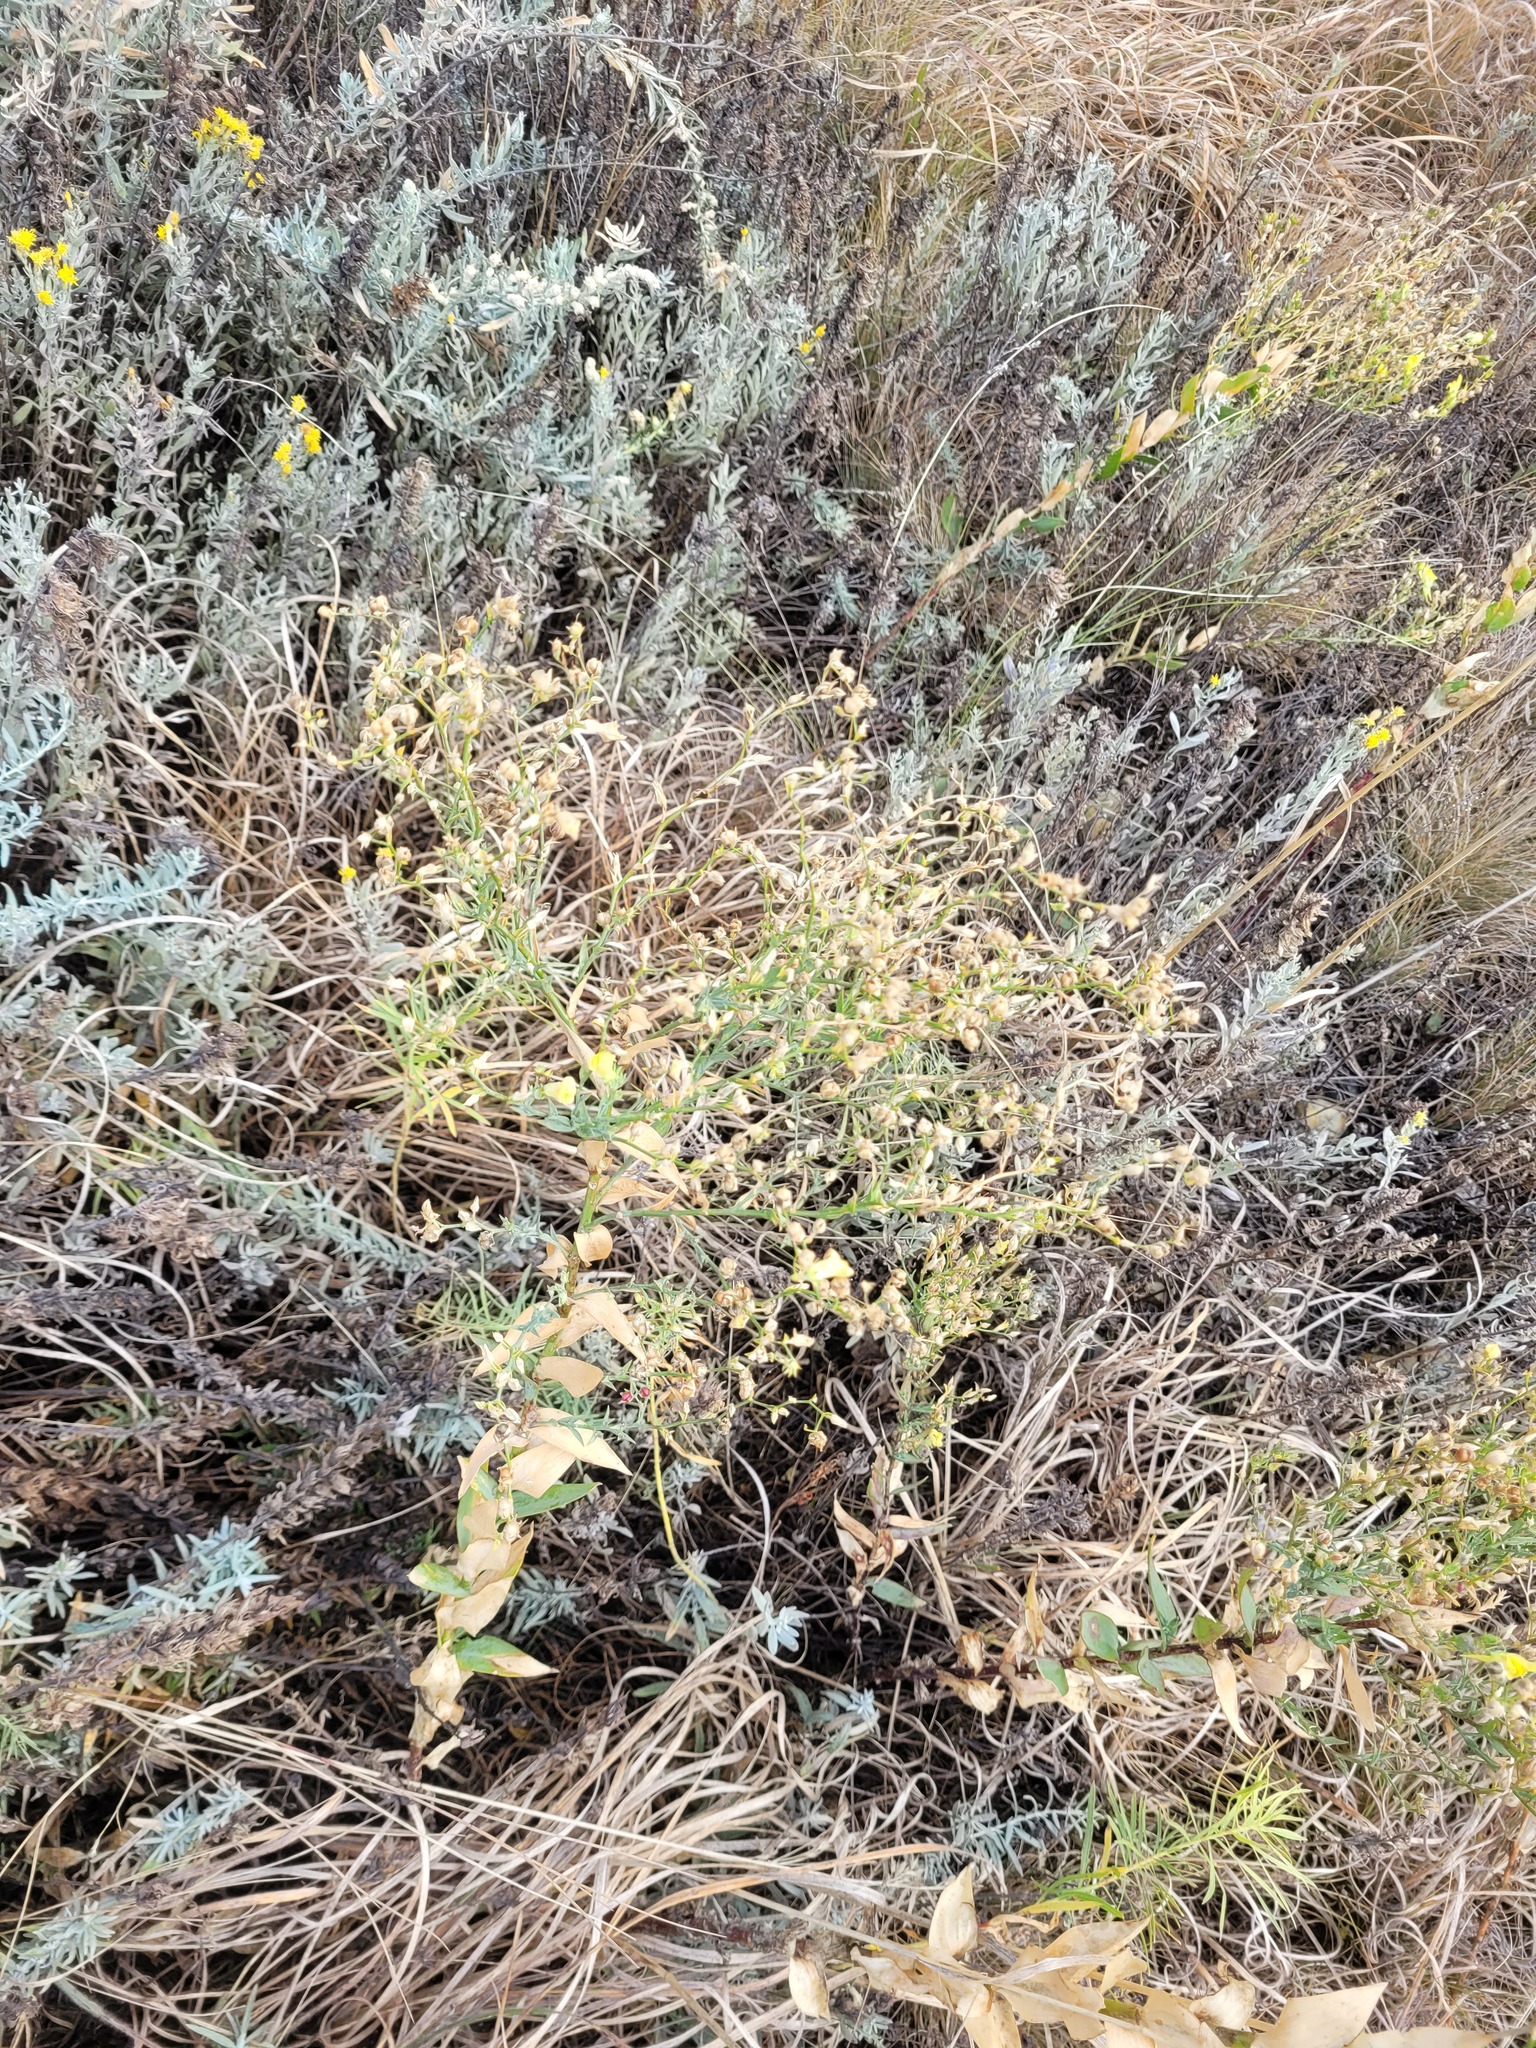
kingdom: Plantae
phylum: Tracheophyta
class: Magnoliopsida
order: Lamiales
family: Plantaginaceae
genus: Linaria
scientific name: Linaria genistifolia
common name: Broomleaf toadflax
